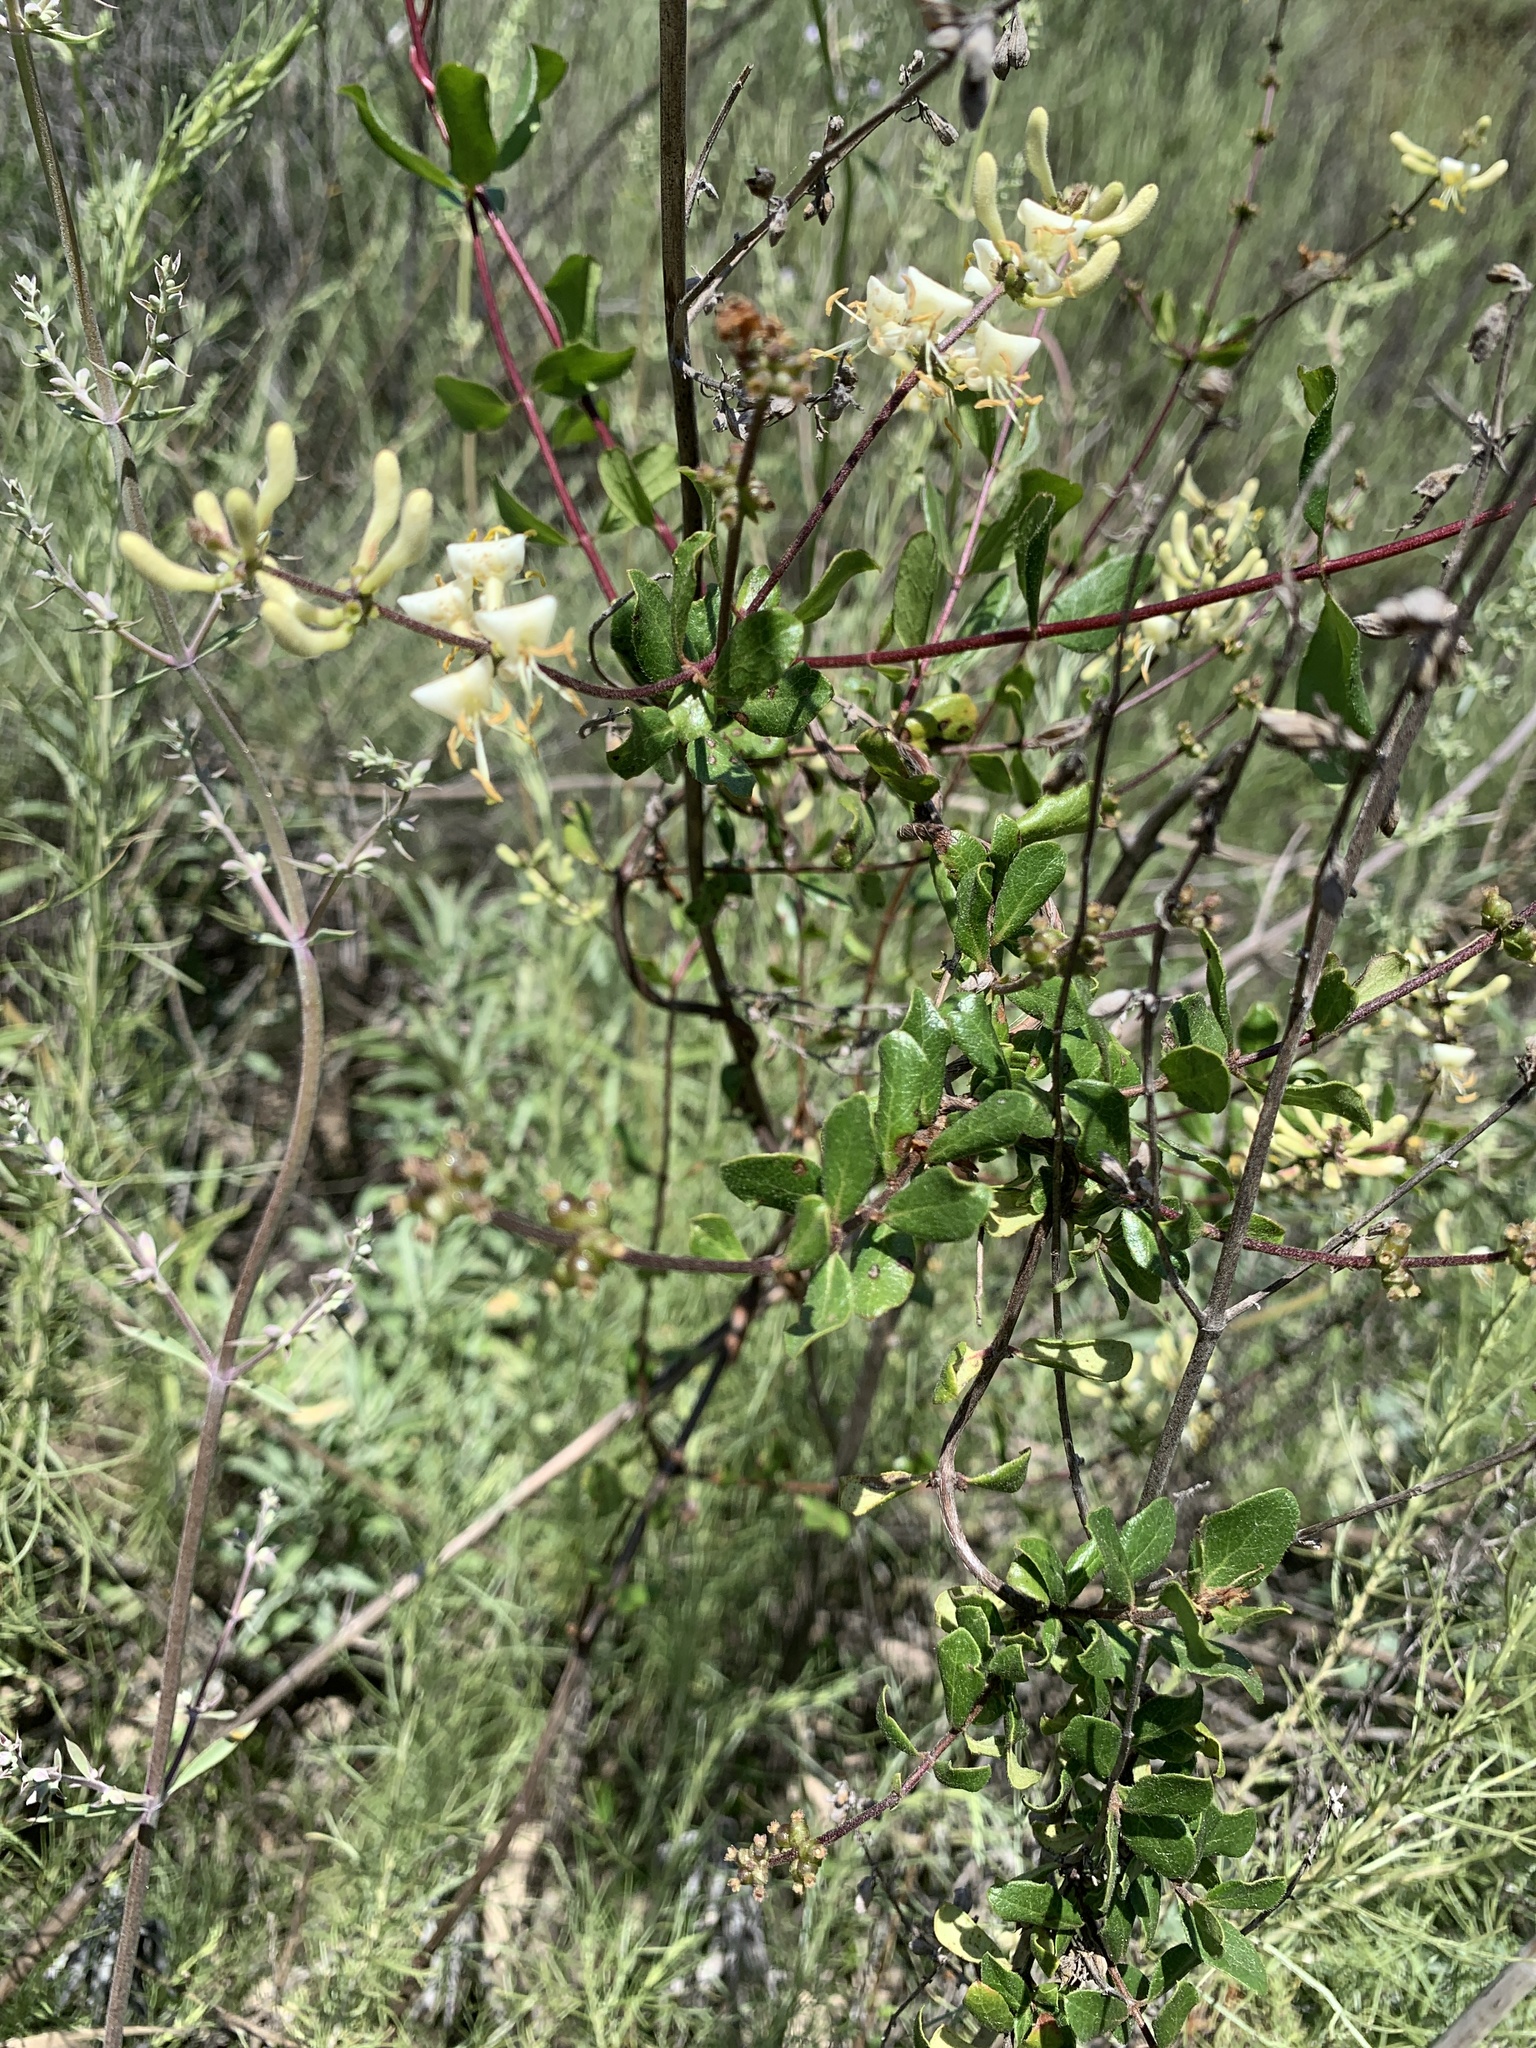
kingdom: Plantae
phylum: Tracheophyta
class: Magnoliopsida
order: Dipsacales
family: Caprifoliaceae
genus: Lonicera
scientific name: Lonicera subspicata
